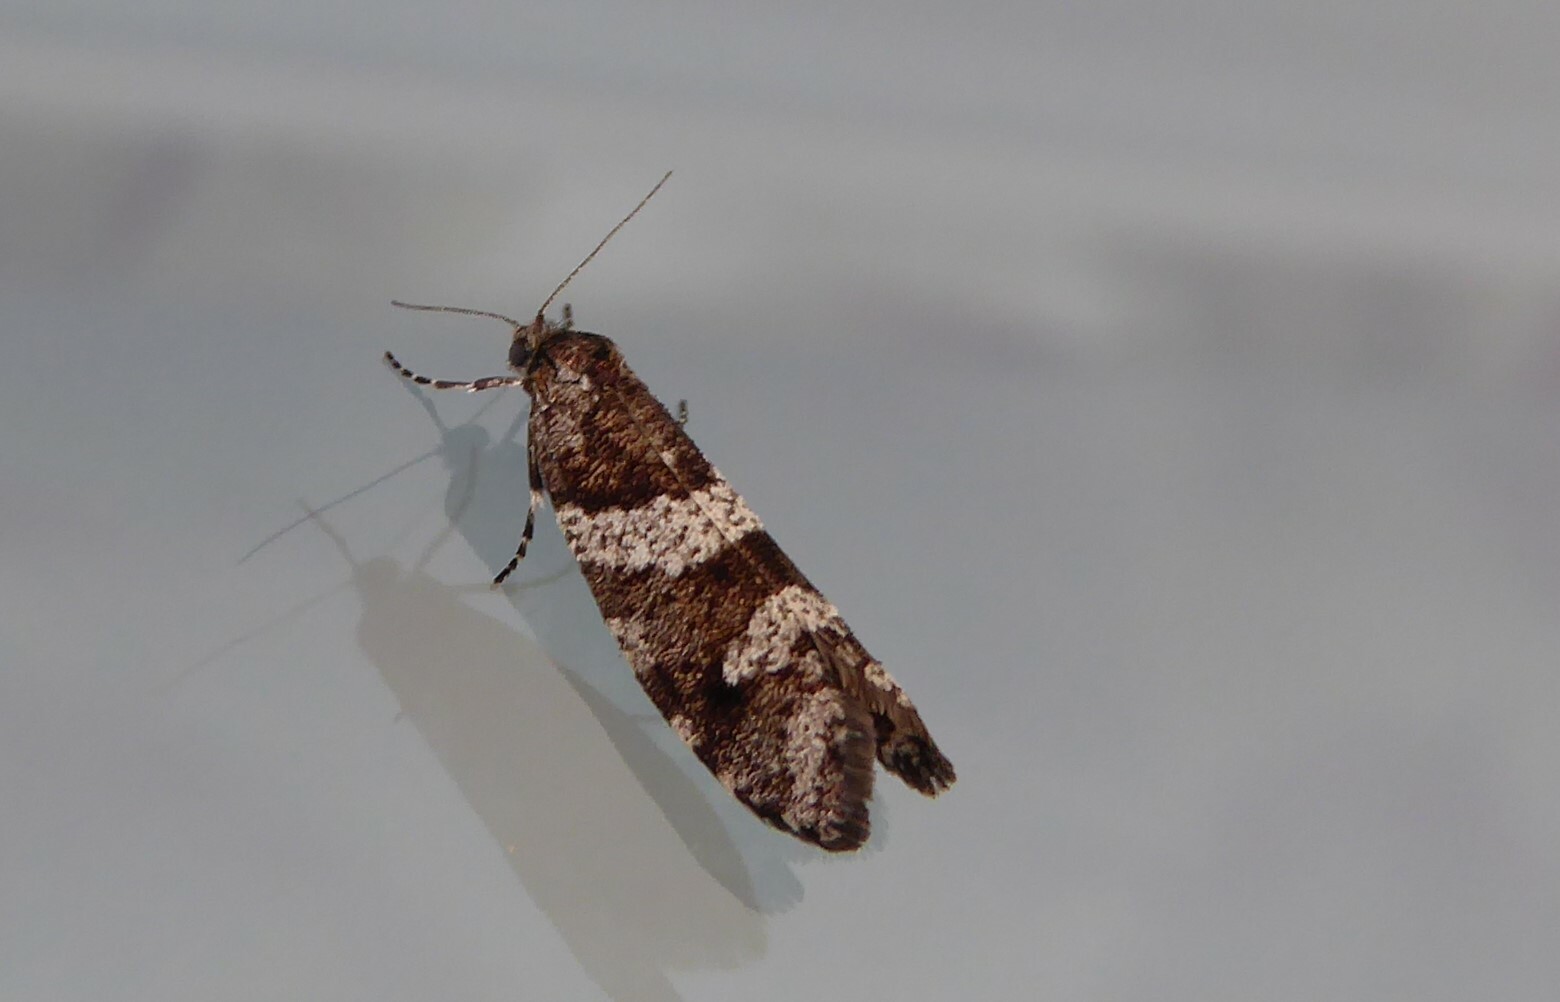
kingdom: Animalia
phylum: Arthropoda
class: Insecta
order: Lepidoptera
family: Psychidae
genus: Lepidoscia
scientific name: Lepidoscia heliochares
